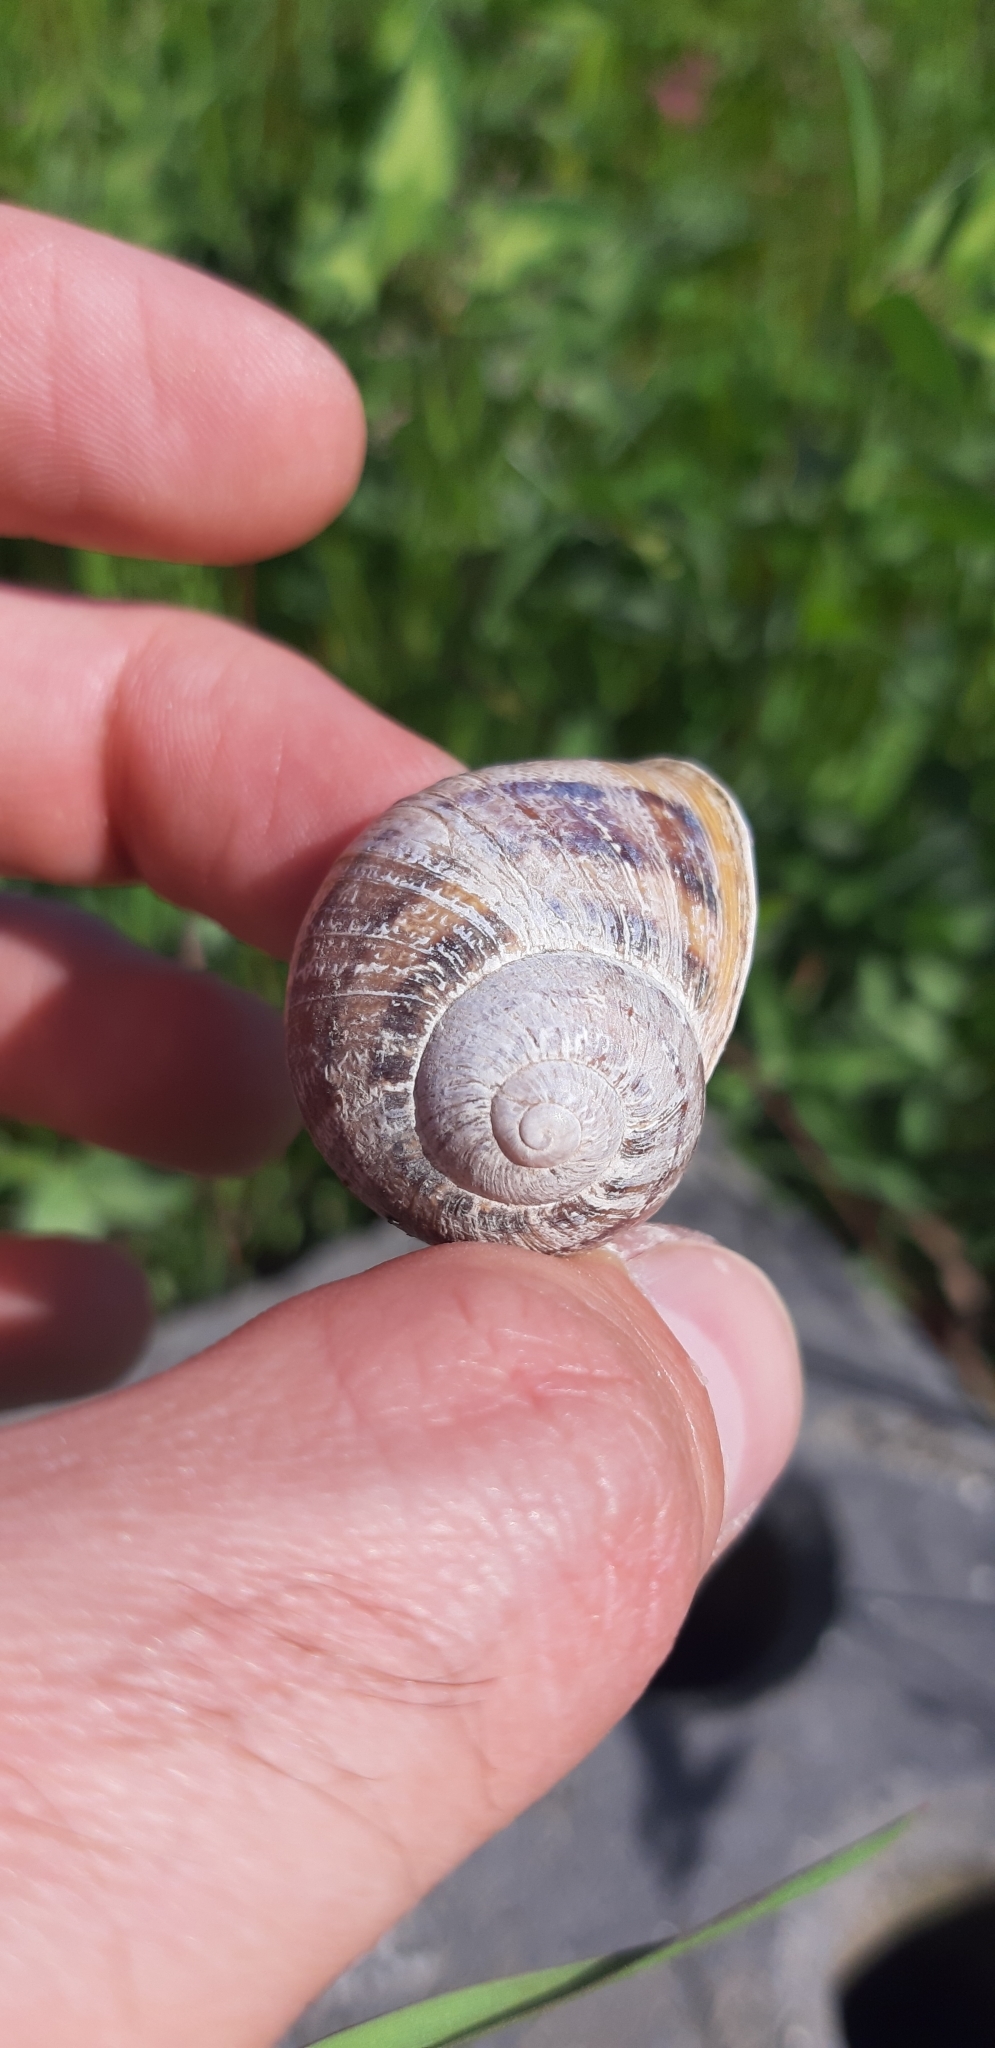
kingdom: Animalia
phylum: Mollusca
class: Gastropoda
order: Stylommatophora
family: Helicidae
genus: Cornu
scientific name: Cornu aspersum
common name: Brown garden snail
